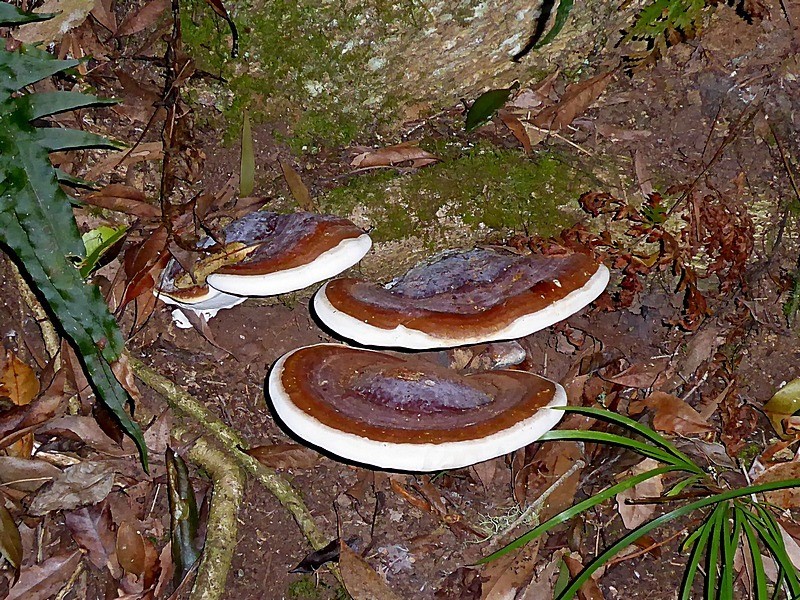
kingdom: Fungi
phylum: Basidiomycota
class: Agaricomycetes
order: Polyporales
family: Polyporaceae
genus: Ganoderma
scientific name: Ganoderma steyaertianum
